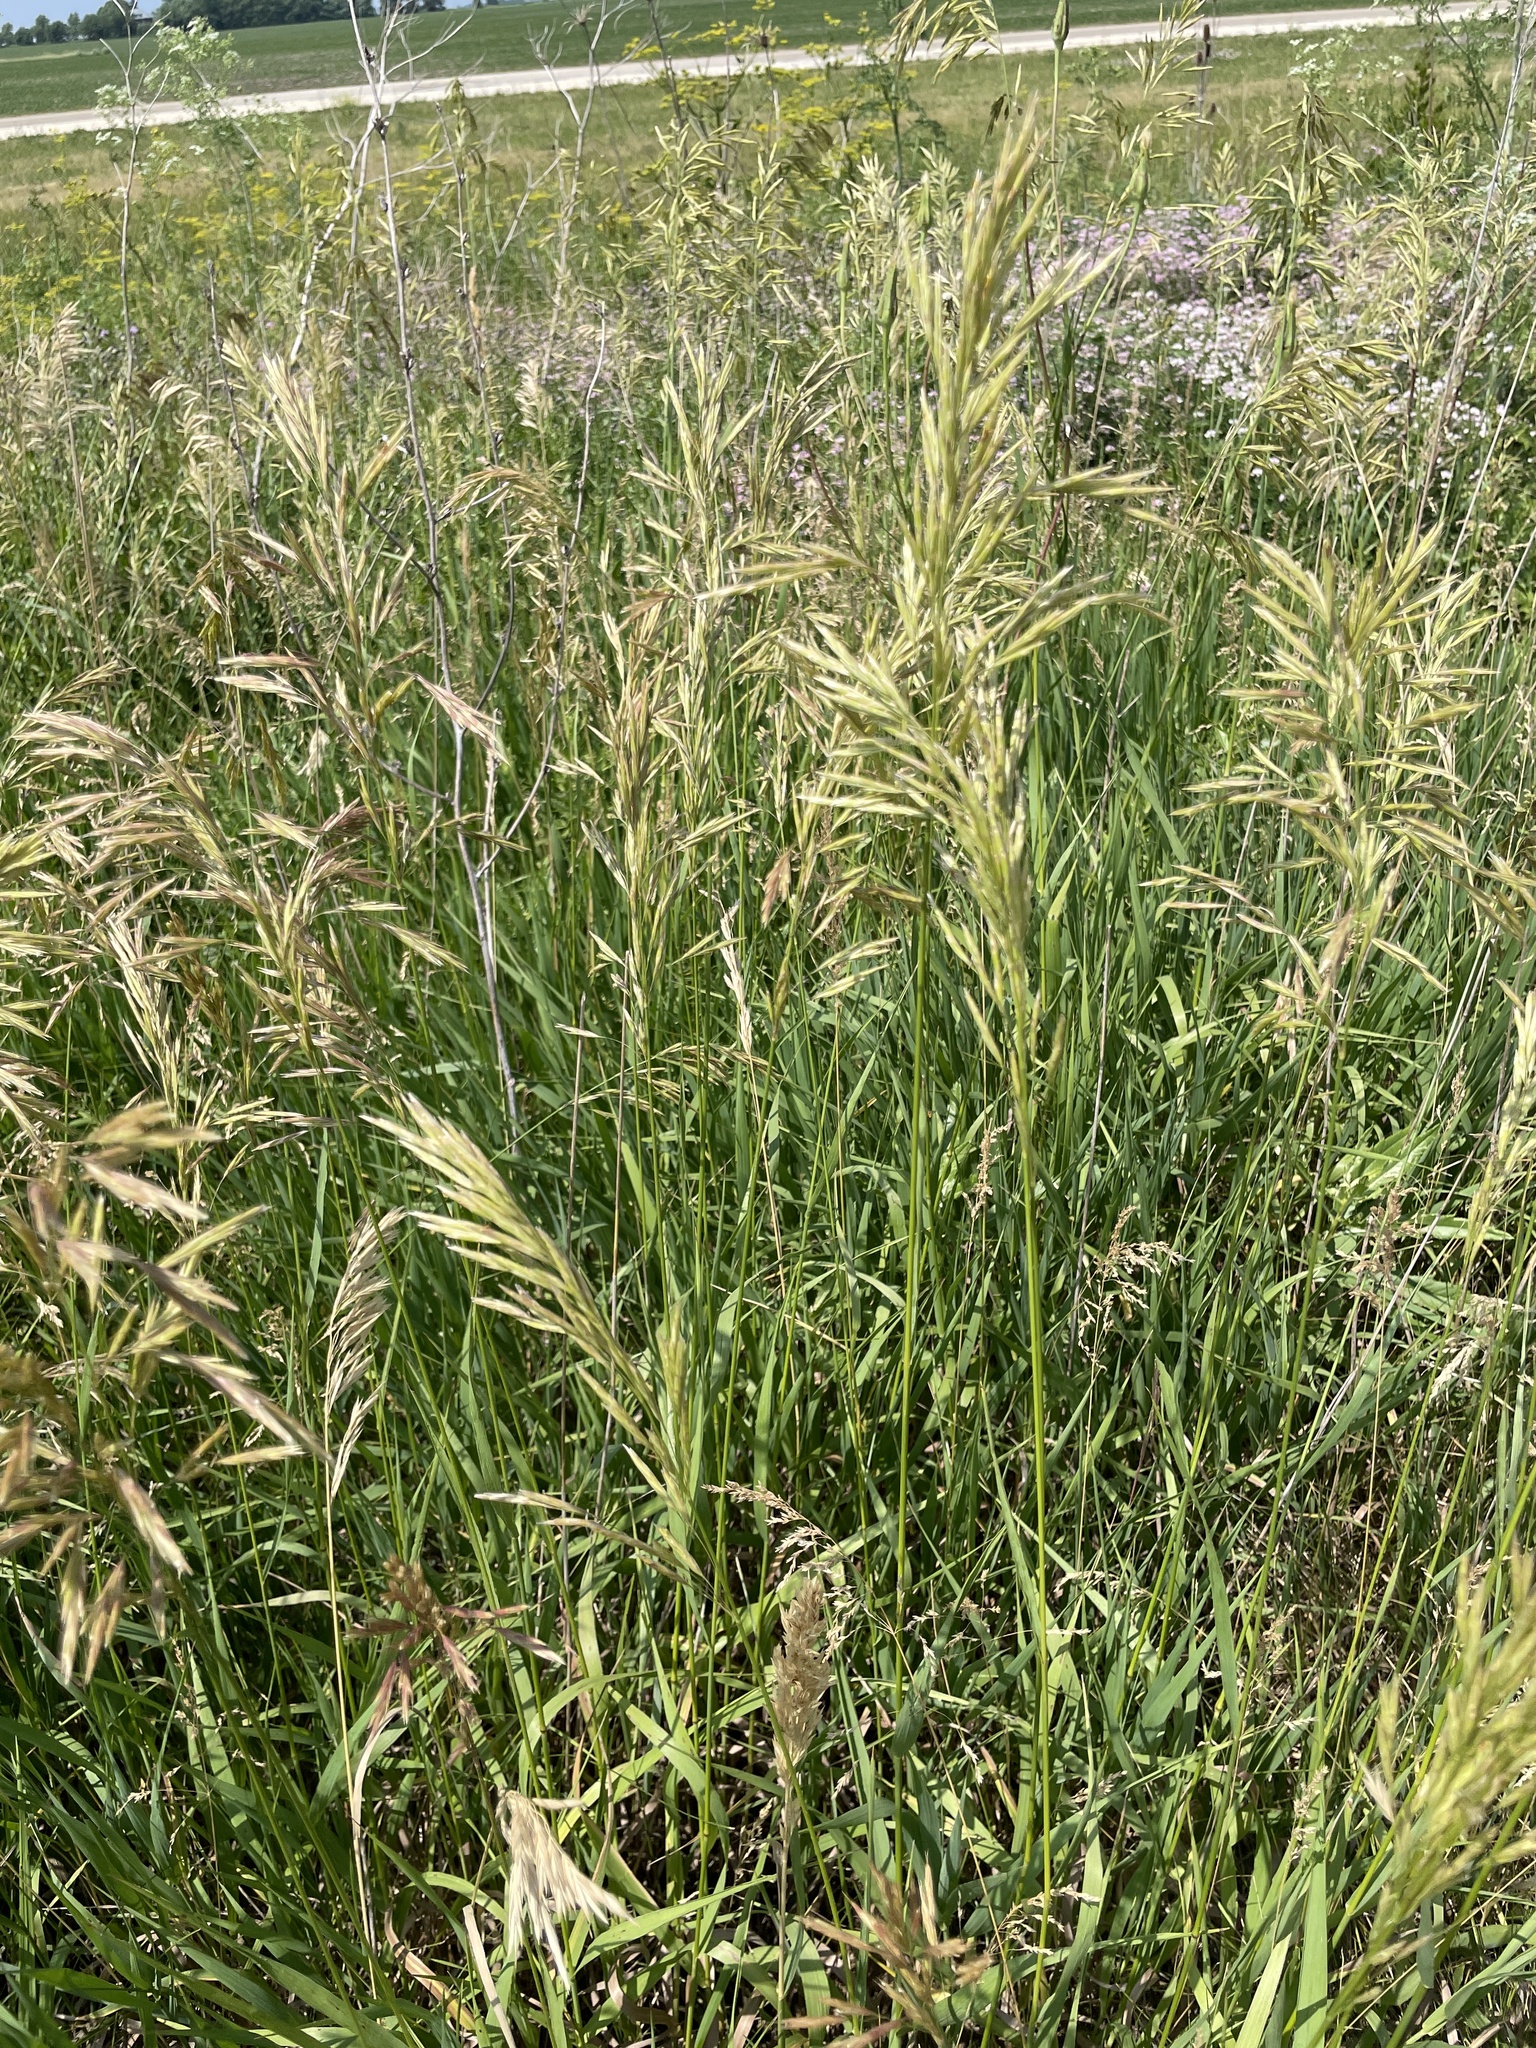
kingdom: Plantae
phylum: Tracheophyta
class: Liliopsida
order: Poales
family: Poaceae
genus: Bromus
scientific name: Bromus inermis
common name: Smooth brome
